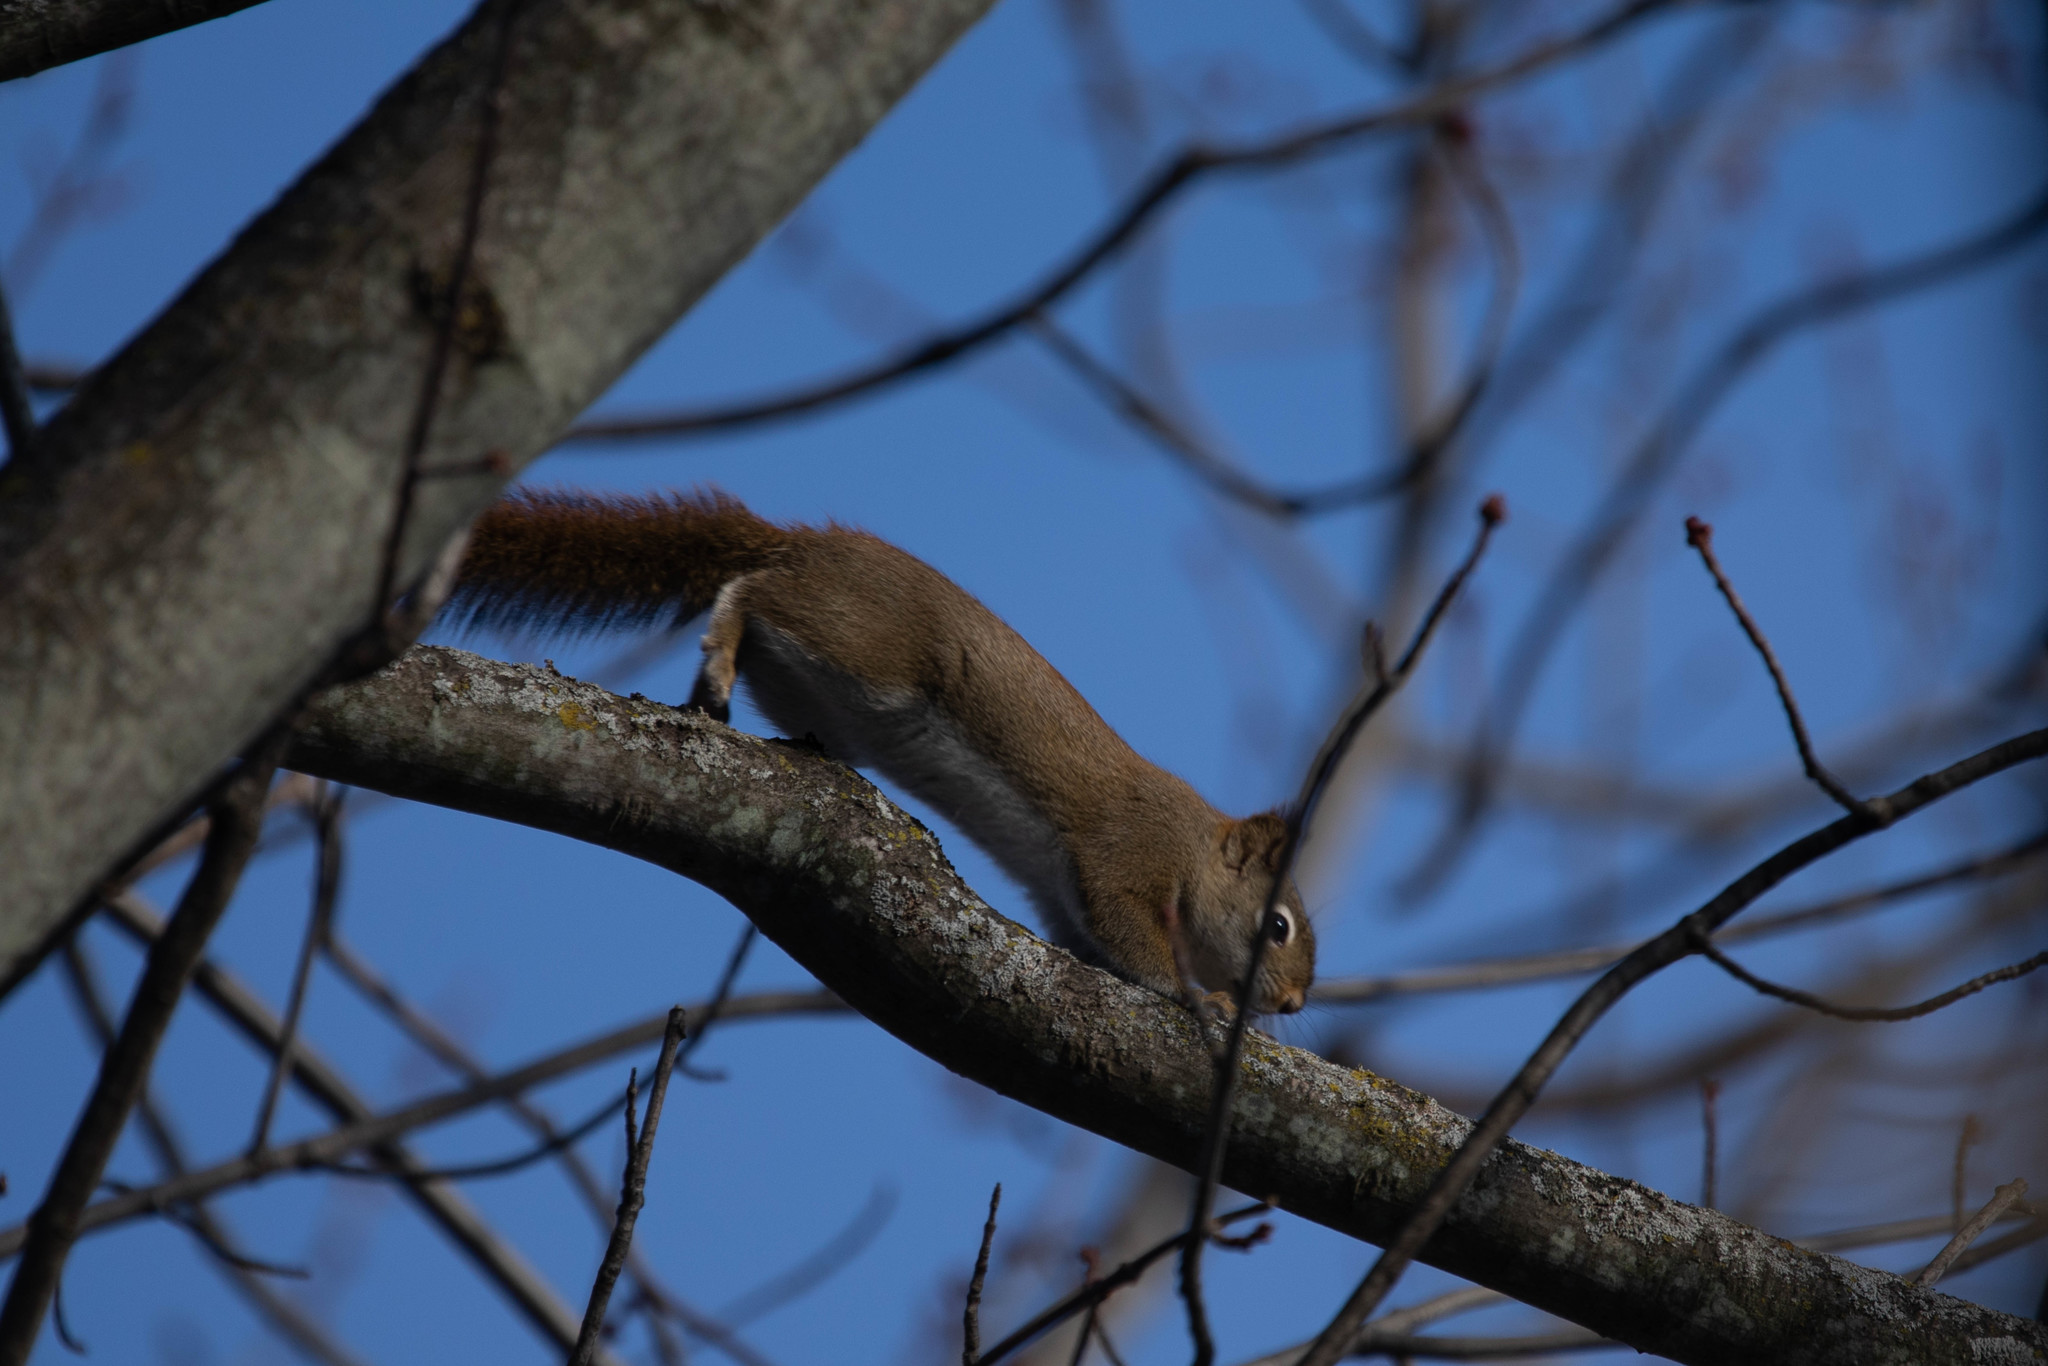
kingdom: Animalia
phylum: Chordata
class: Mammalia
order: Rodentia
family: Sciuridae
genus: Tamiasciurus
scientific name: Tamiasciurus hudsonicus
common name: Red squirrel
